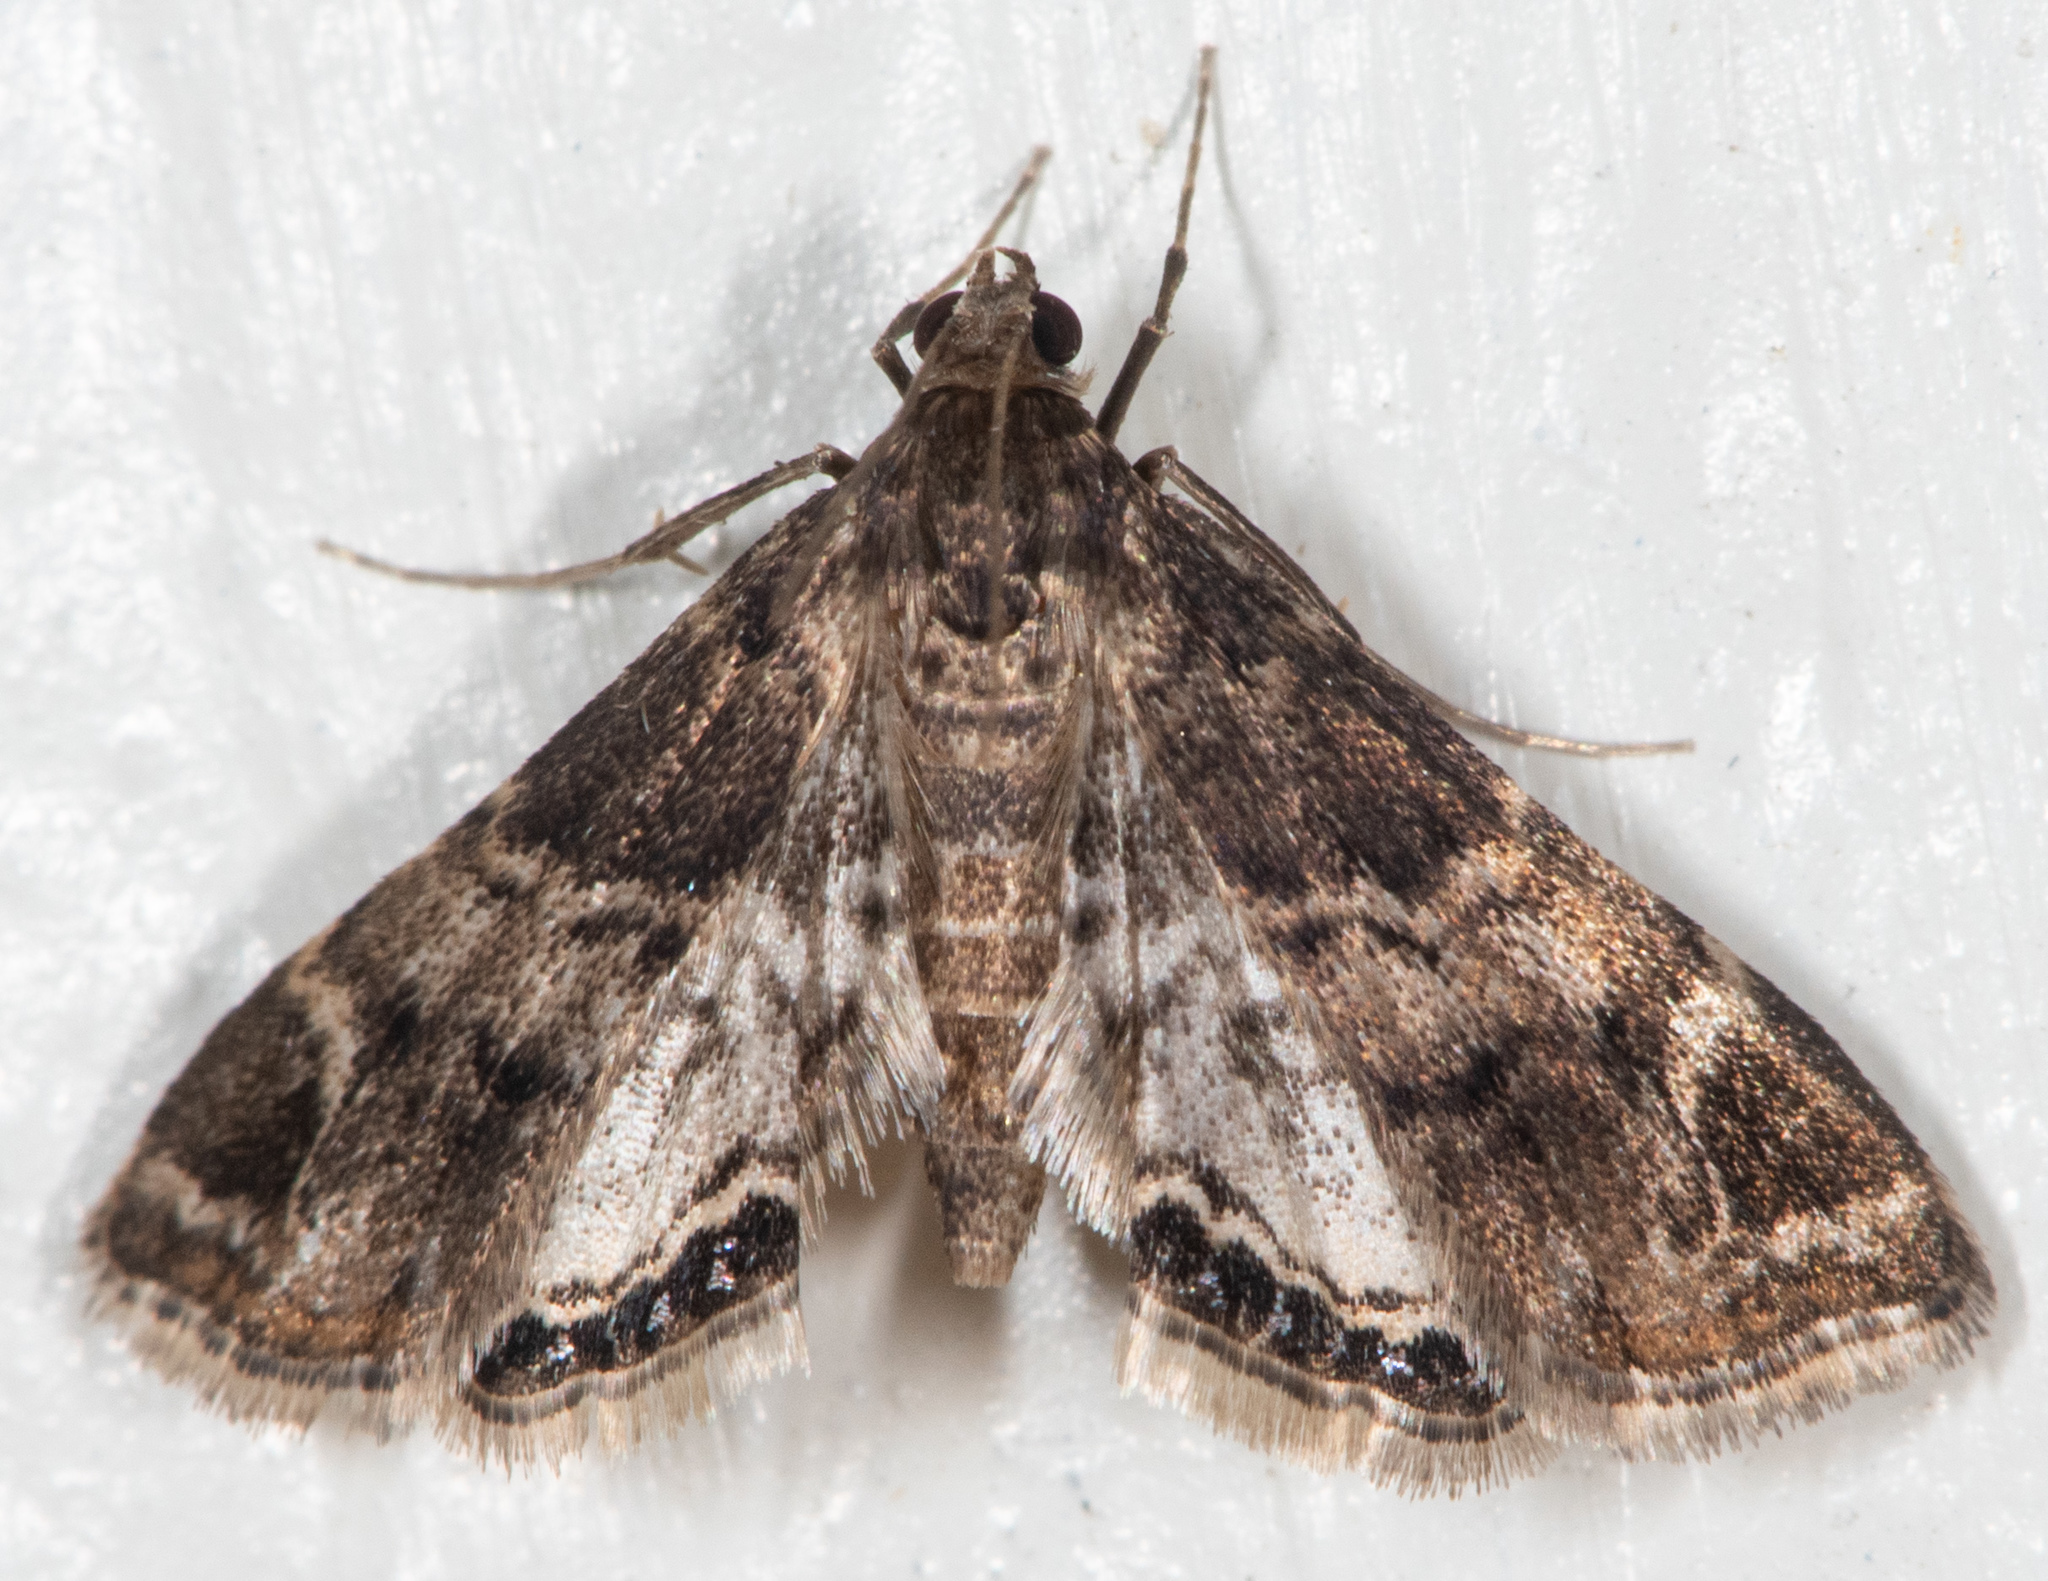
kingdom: Animalia
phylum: Arthropoda
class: Insecta
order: Lepidoptera
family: Crambidae
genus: Usingeriessa
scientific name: Usingeriessa brunnildalis
